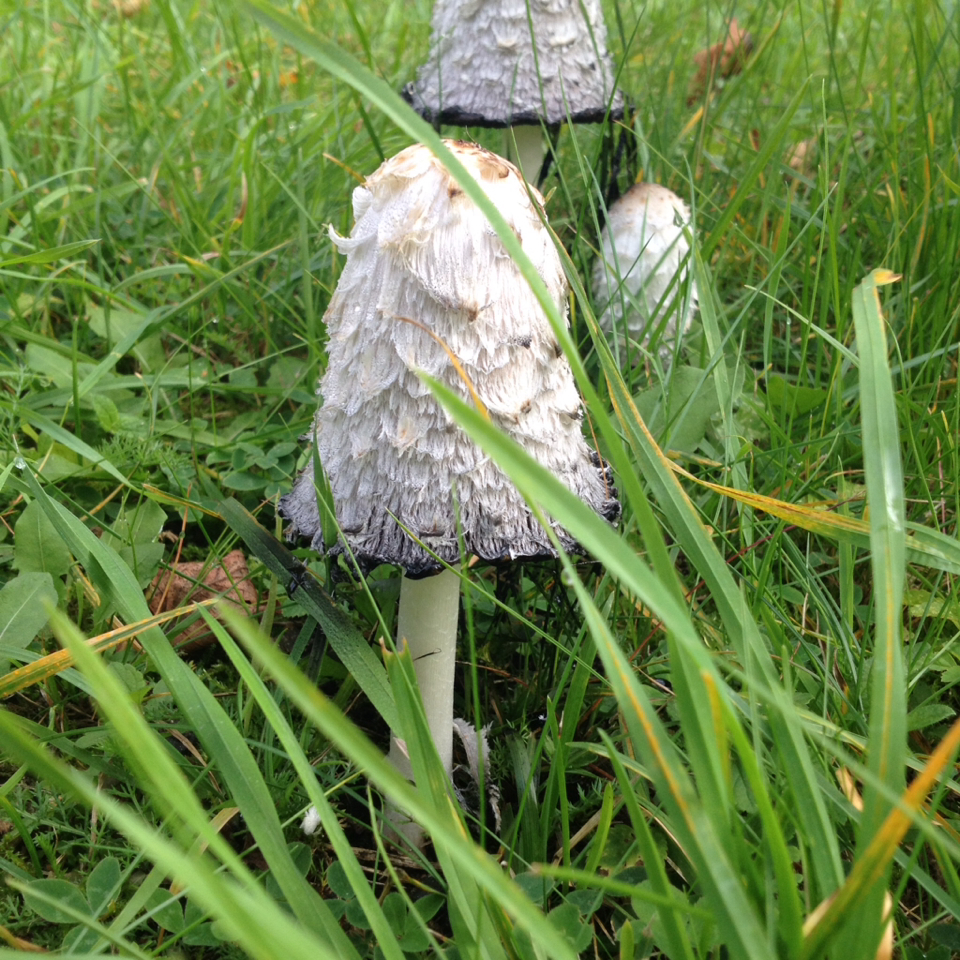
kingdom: Fungi
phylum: Basidiomycota
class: Agaricomycetes
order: Agaricales
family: Agaricaceae
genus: Coprinus
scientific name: Coprinus comatus
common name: Lawyer's wig
